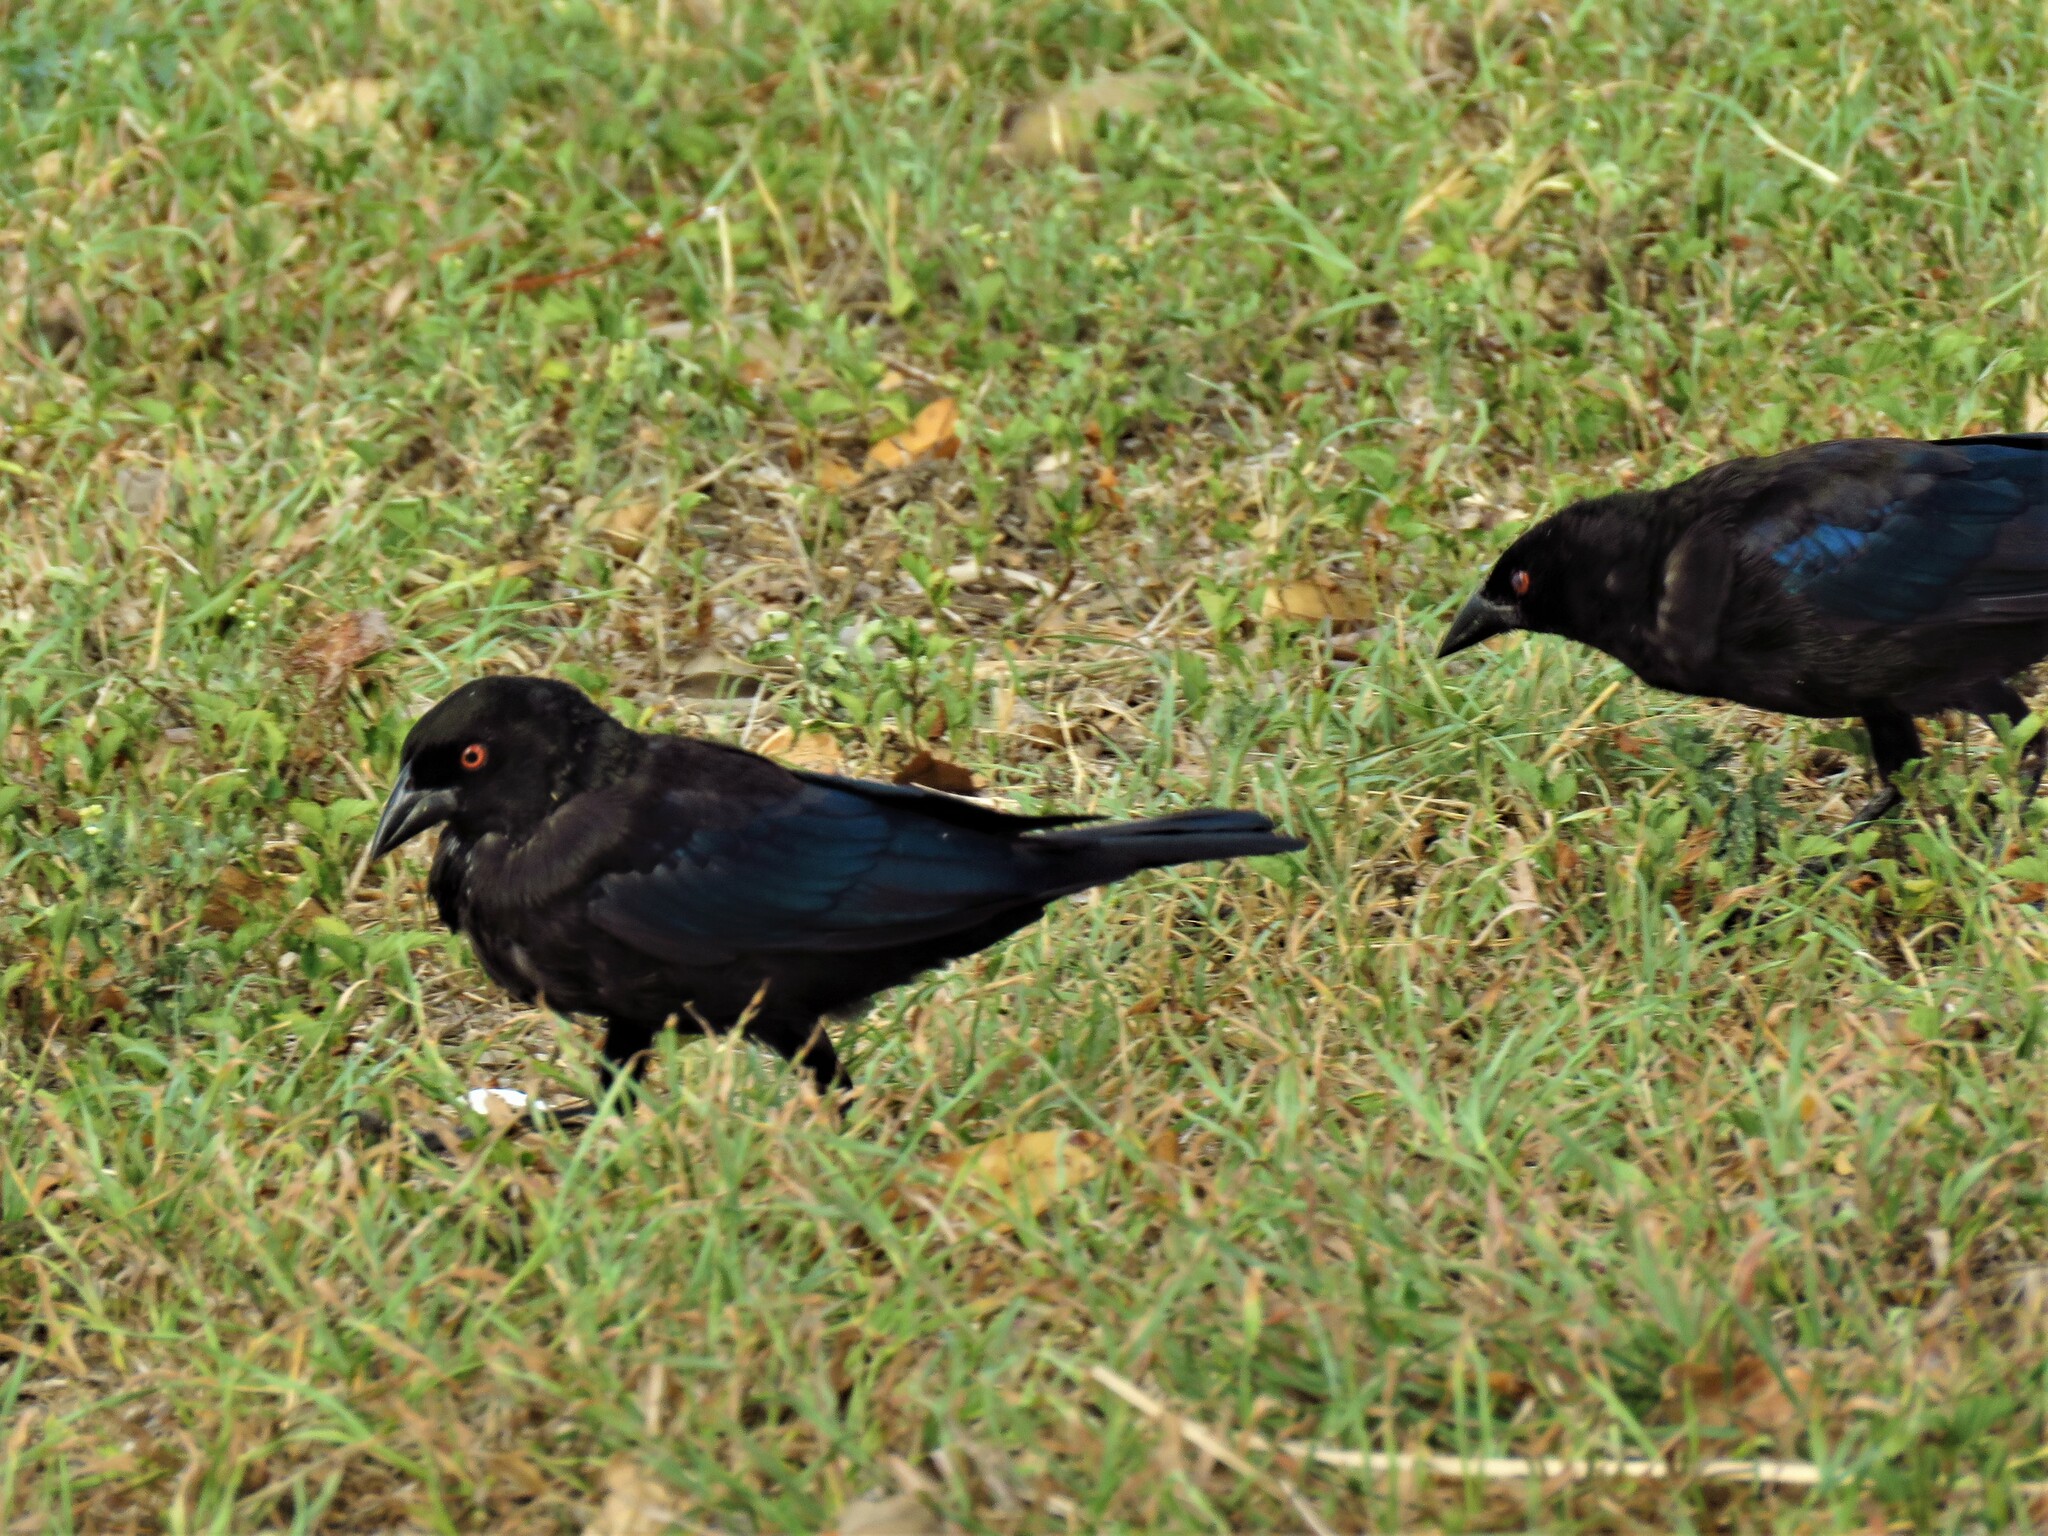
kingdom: Animalia
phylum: Chordata
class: Aves
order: Passeriformes
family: Icteridae
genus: Molothrus
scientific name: Molothrus aeneus
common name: Bronzed cowbird
